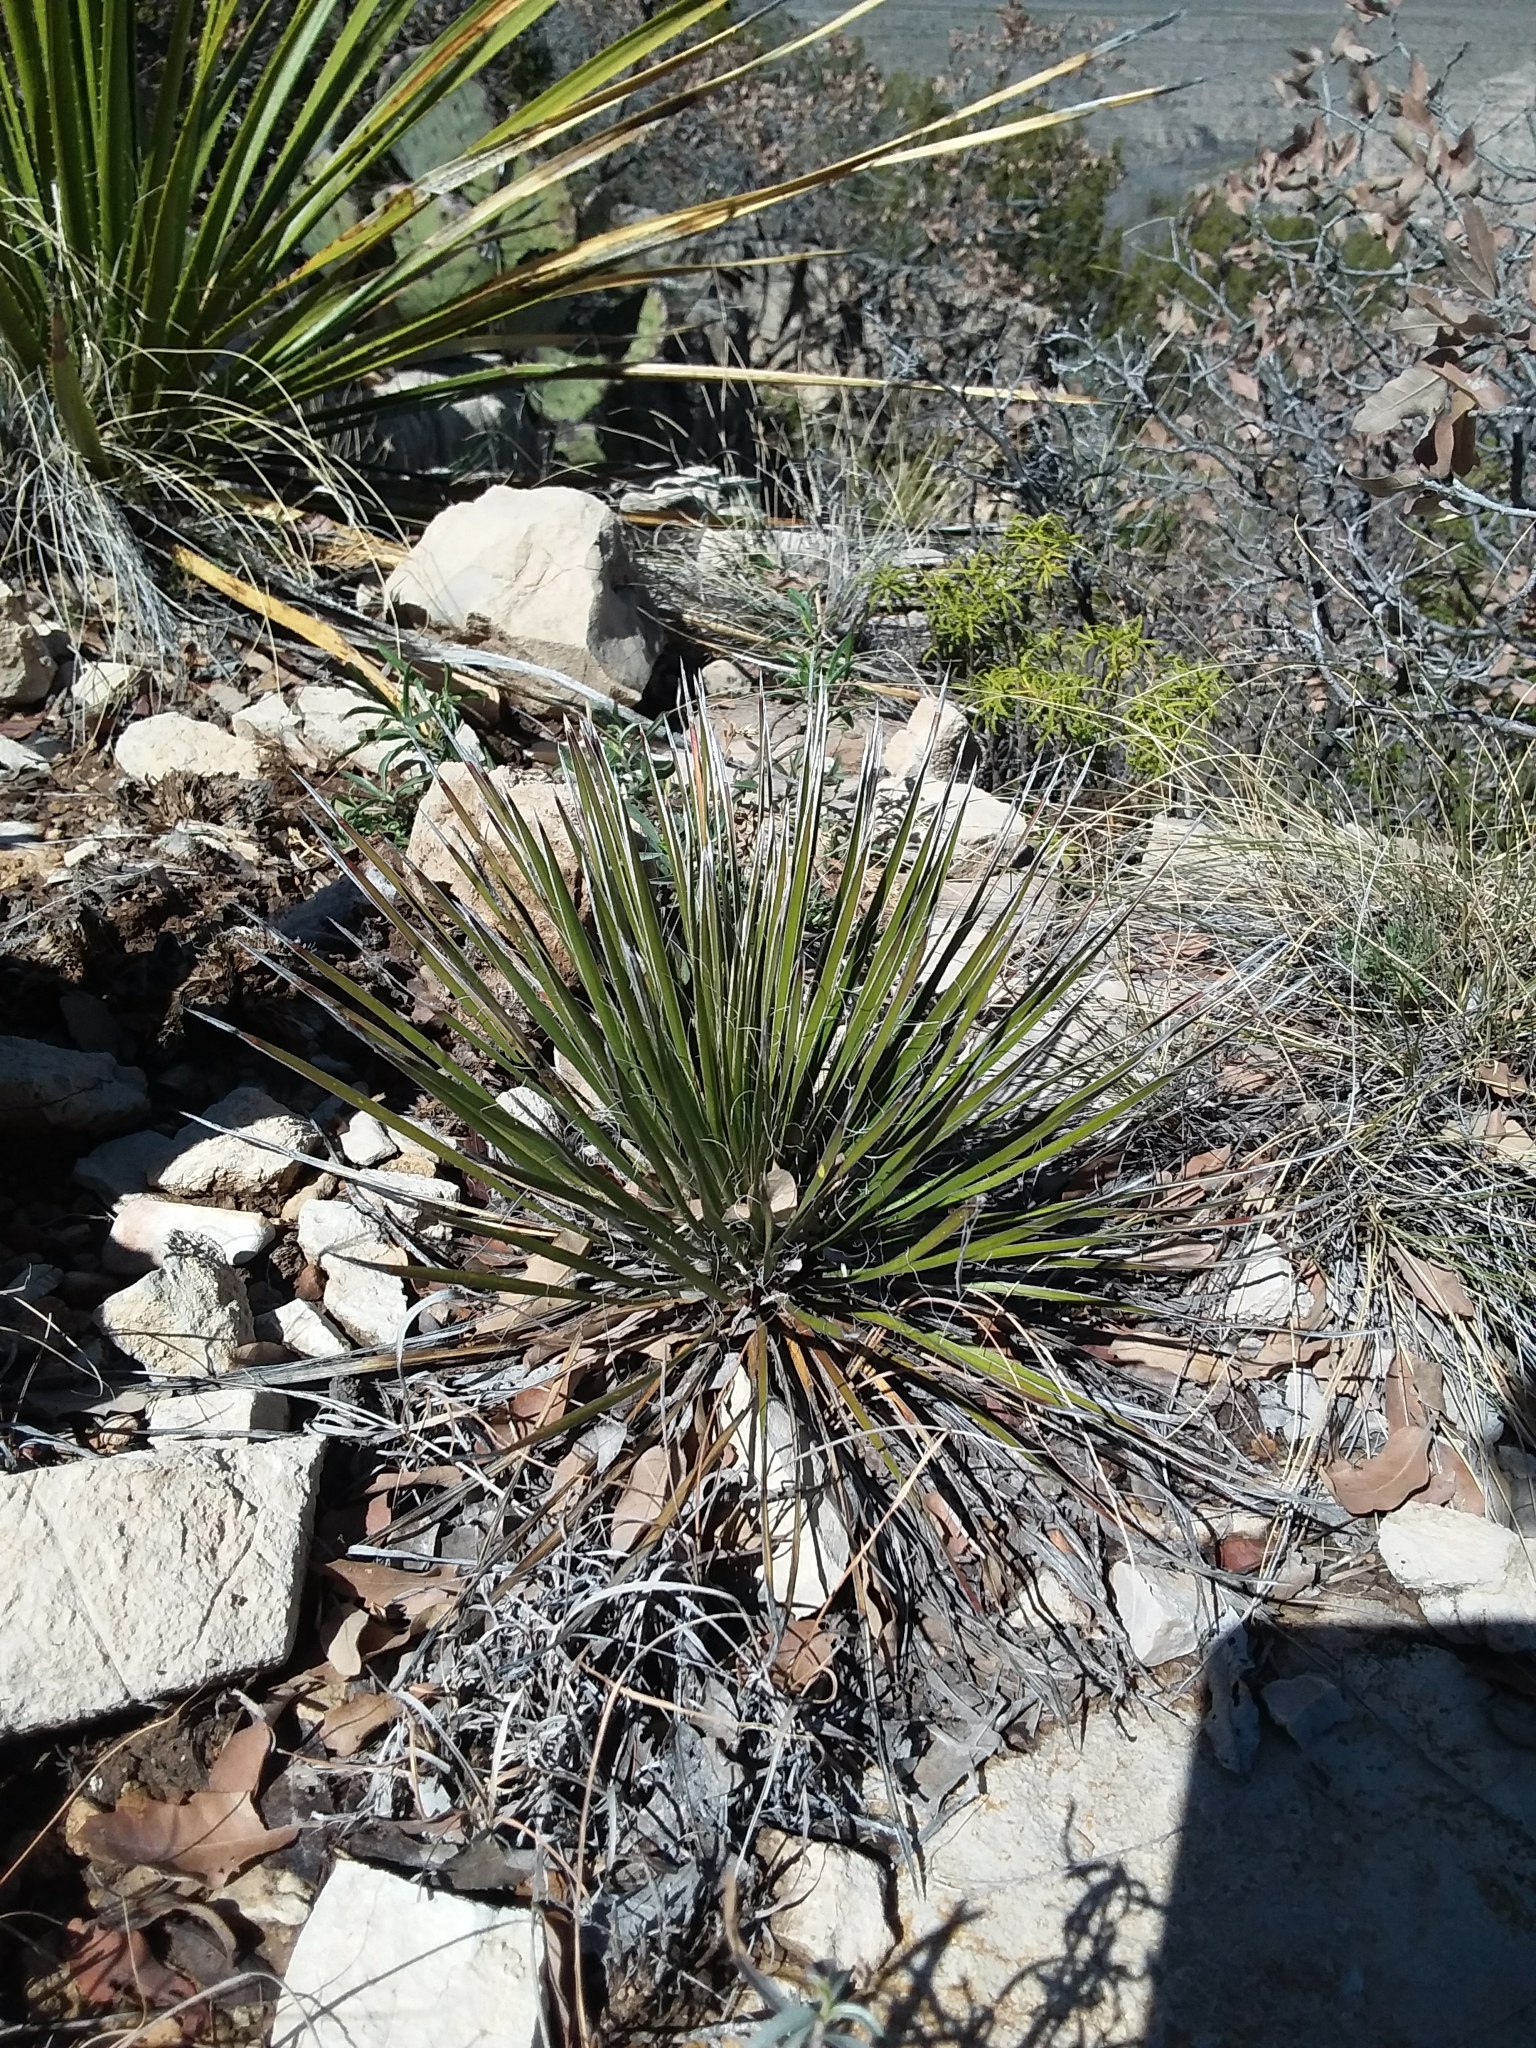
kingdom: Plantae
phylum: Tracheophyta
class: Liliopsida
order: Asparagales
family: Asparagaceae
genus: Yucca
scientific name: Yucca elata
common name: Palmella
